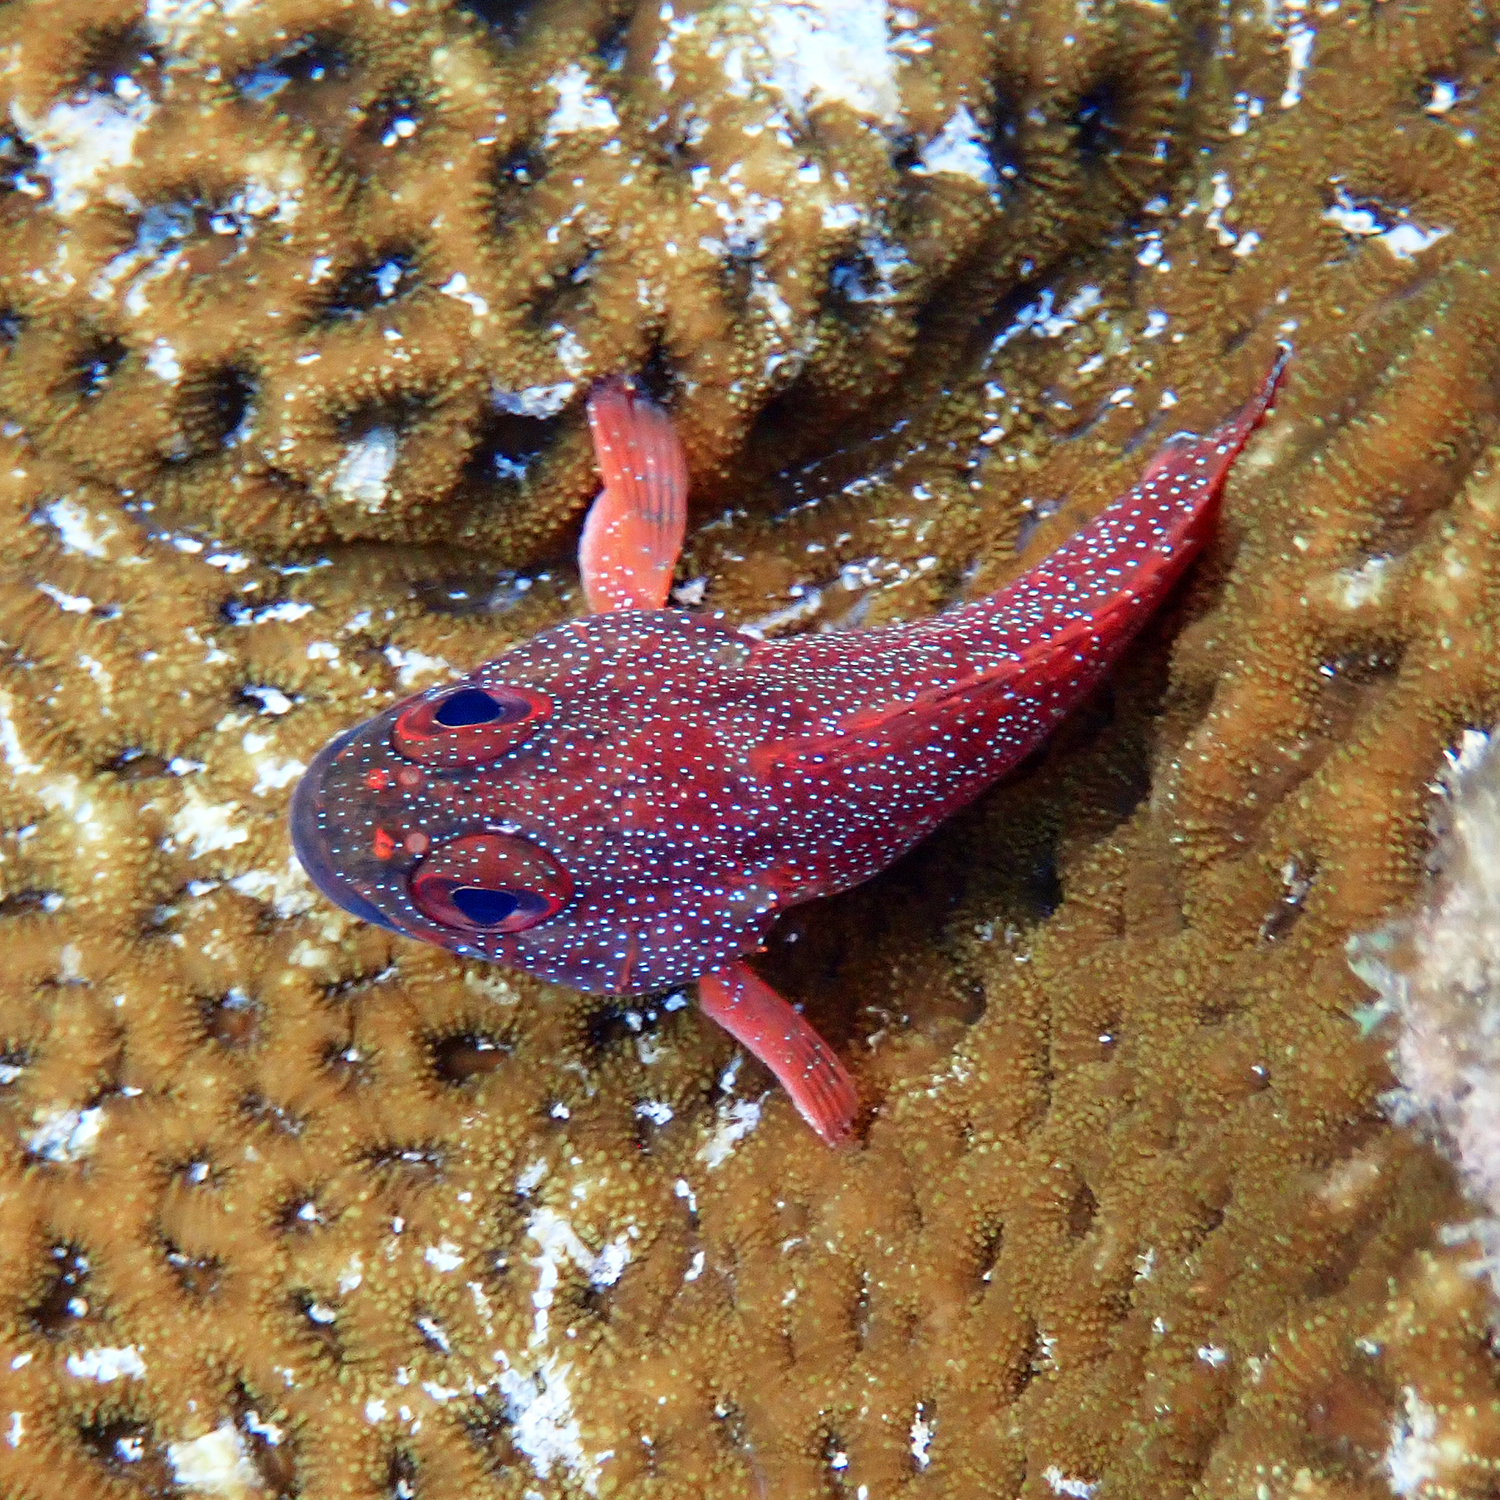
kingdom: Animalia
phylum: Chordata
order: Perciformes
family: Serranidae
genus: Trachypoma
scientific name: Trachypoma macracanthus
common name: Toadstool grouper
